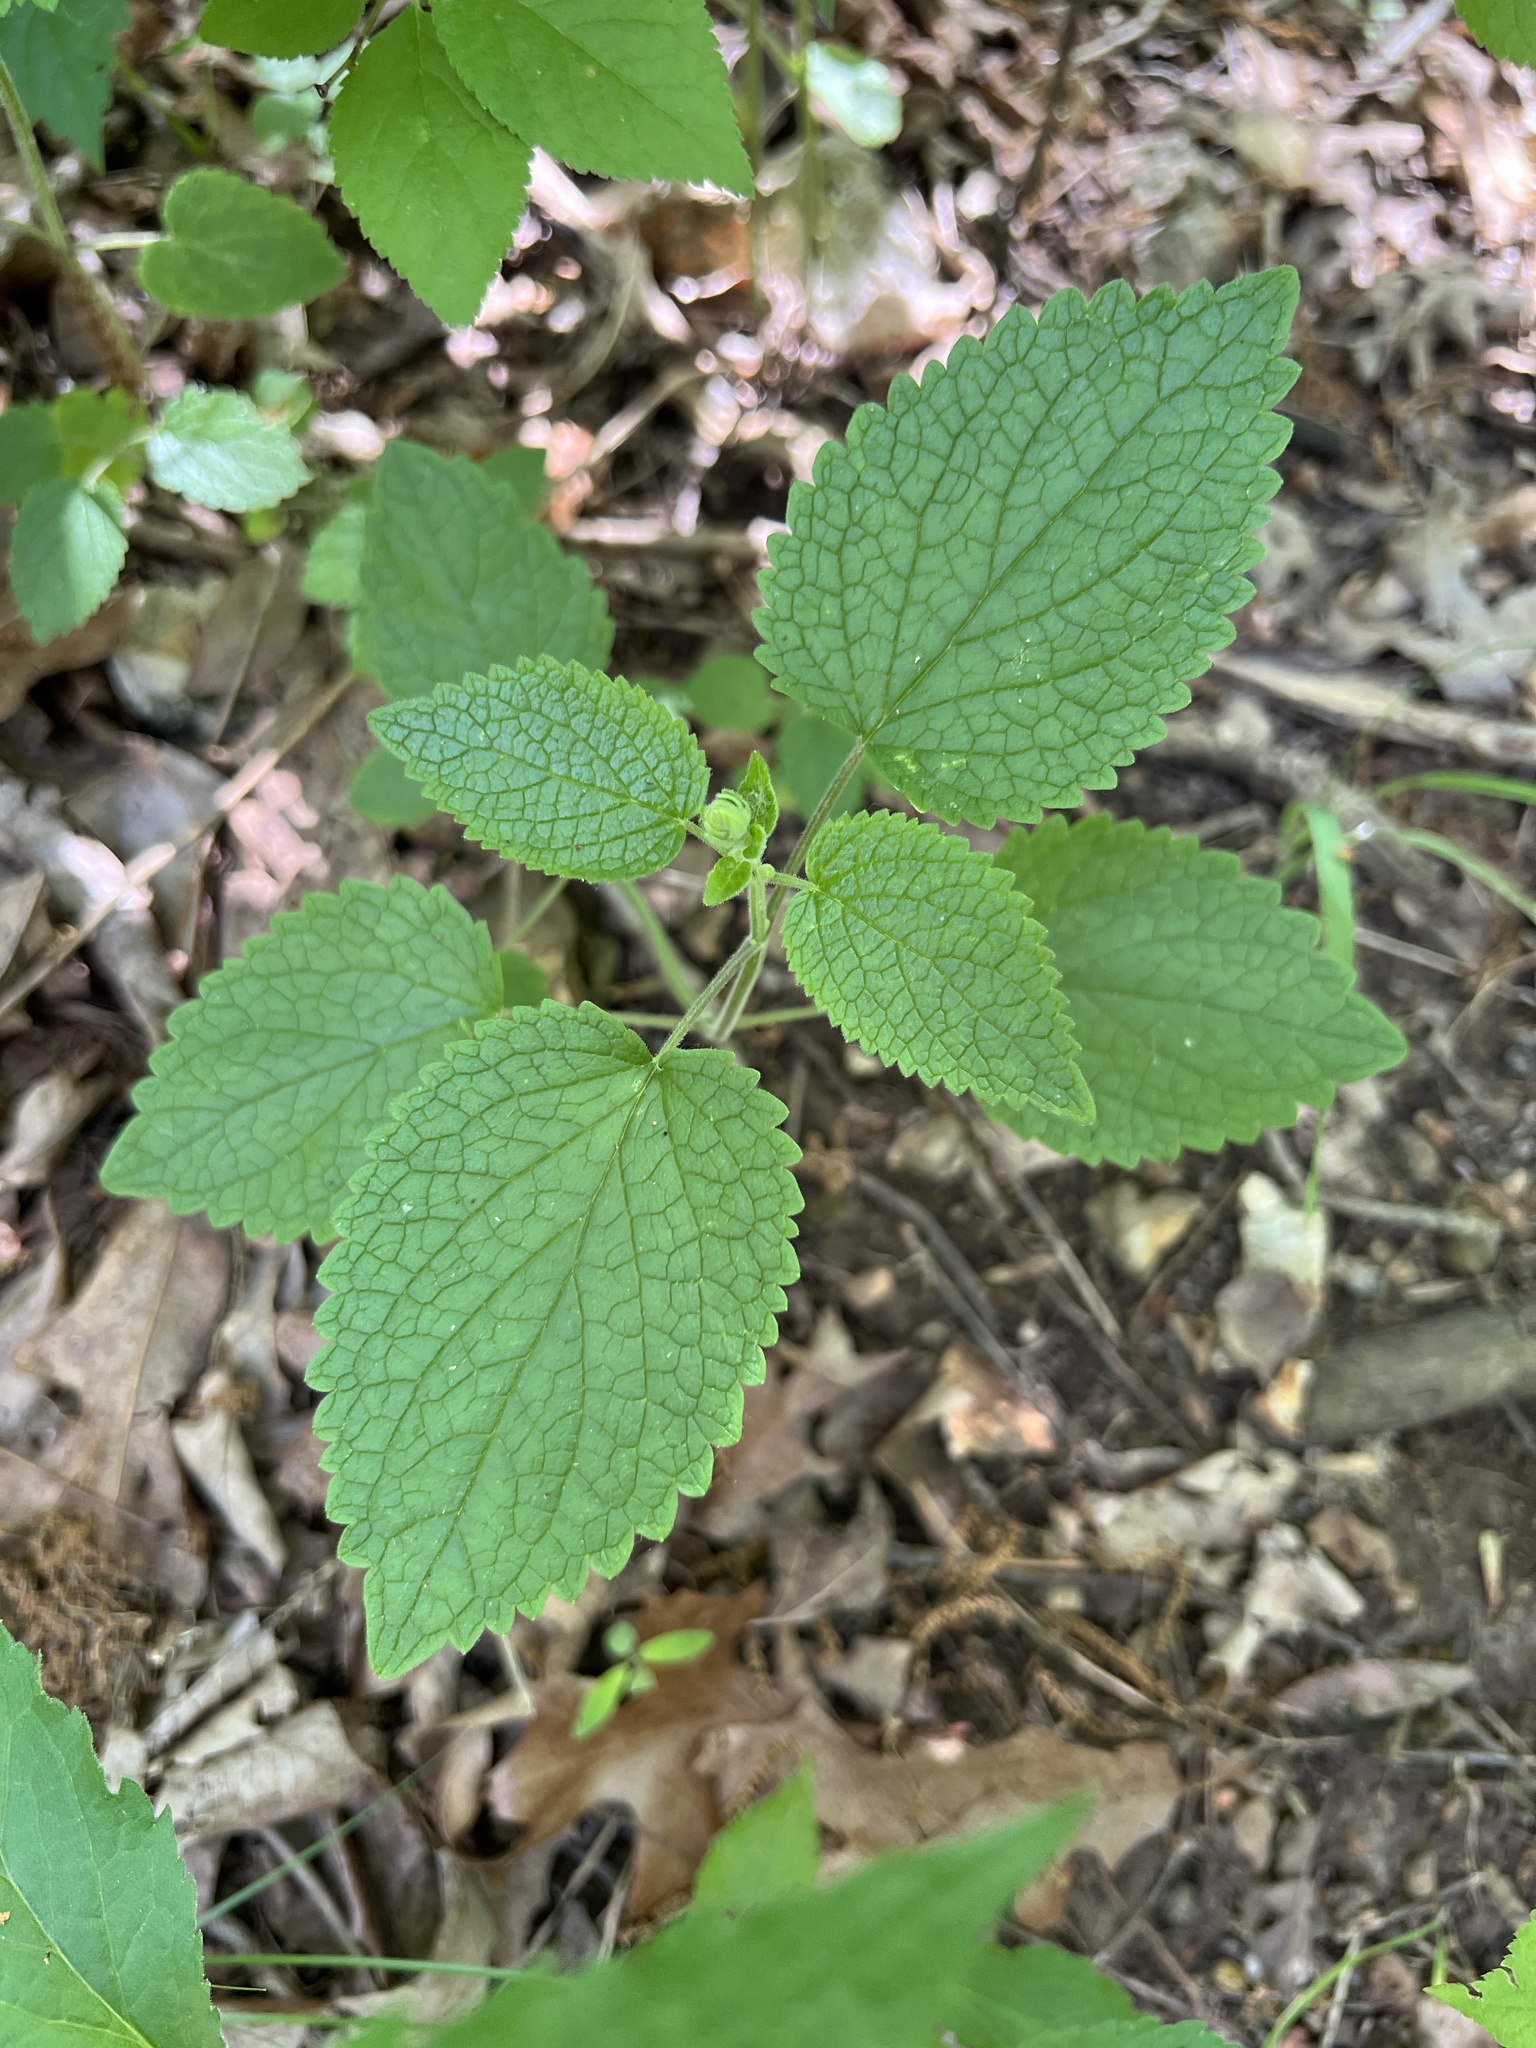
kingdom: Plantae
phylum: Tracheophyta
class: Magnoliopsida
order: Lamiales
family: Lamiaceae
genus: Scutellaria
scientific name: Scutellaria ovata
